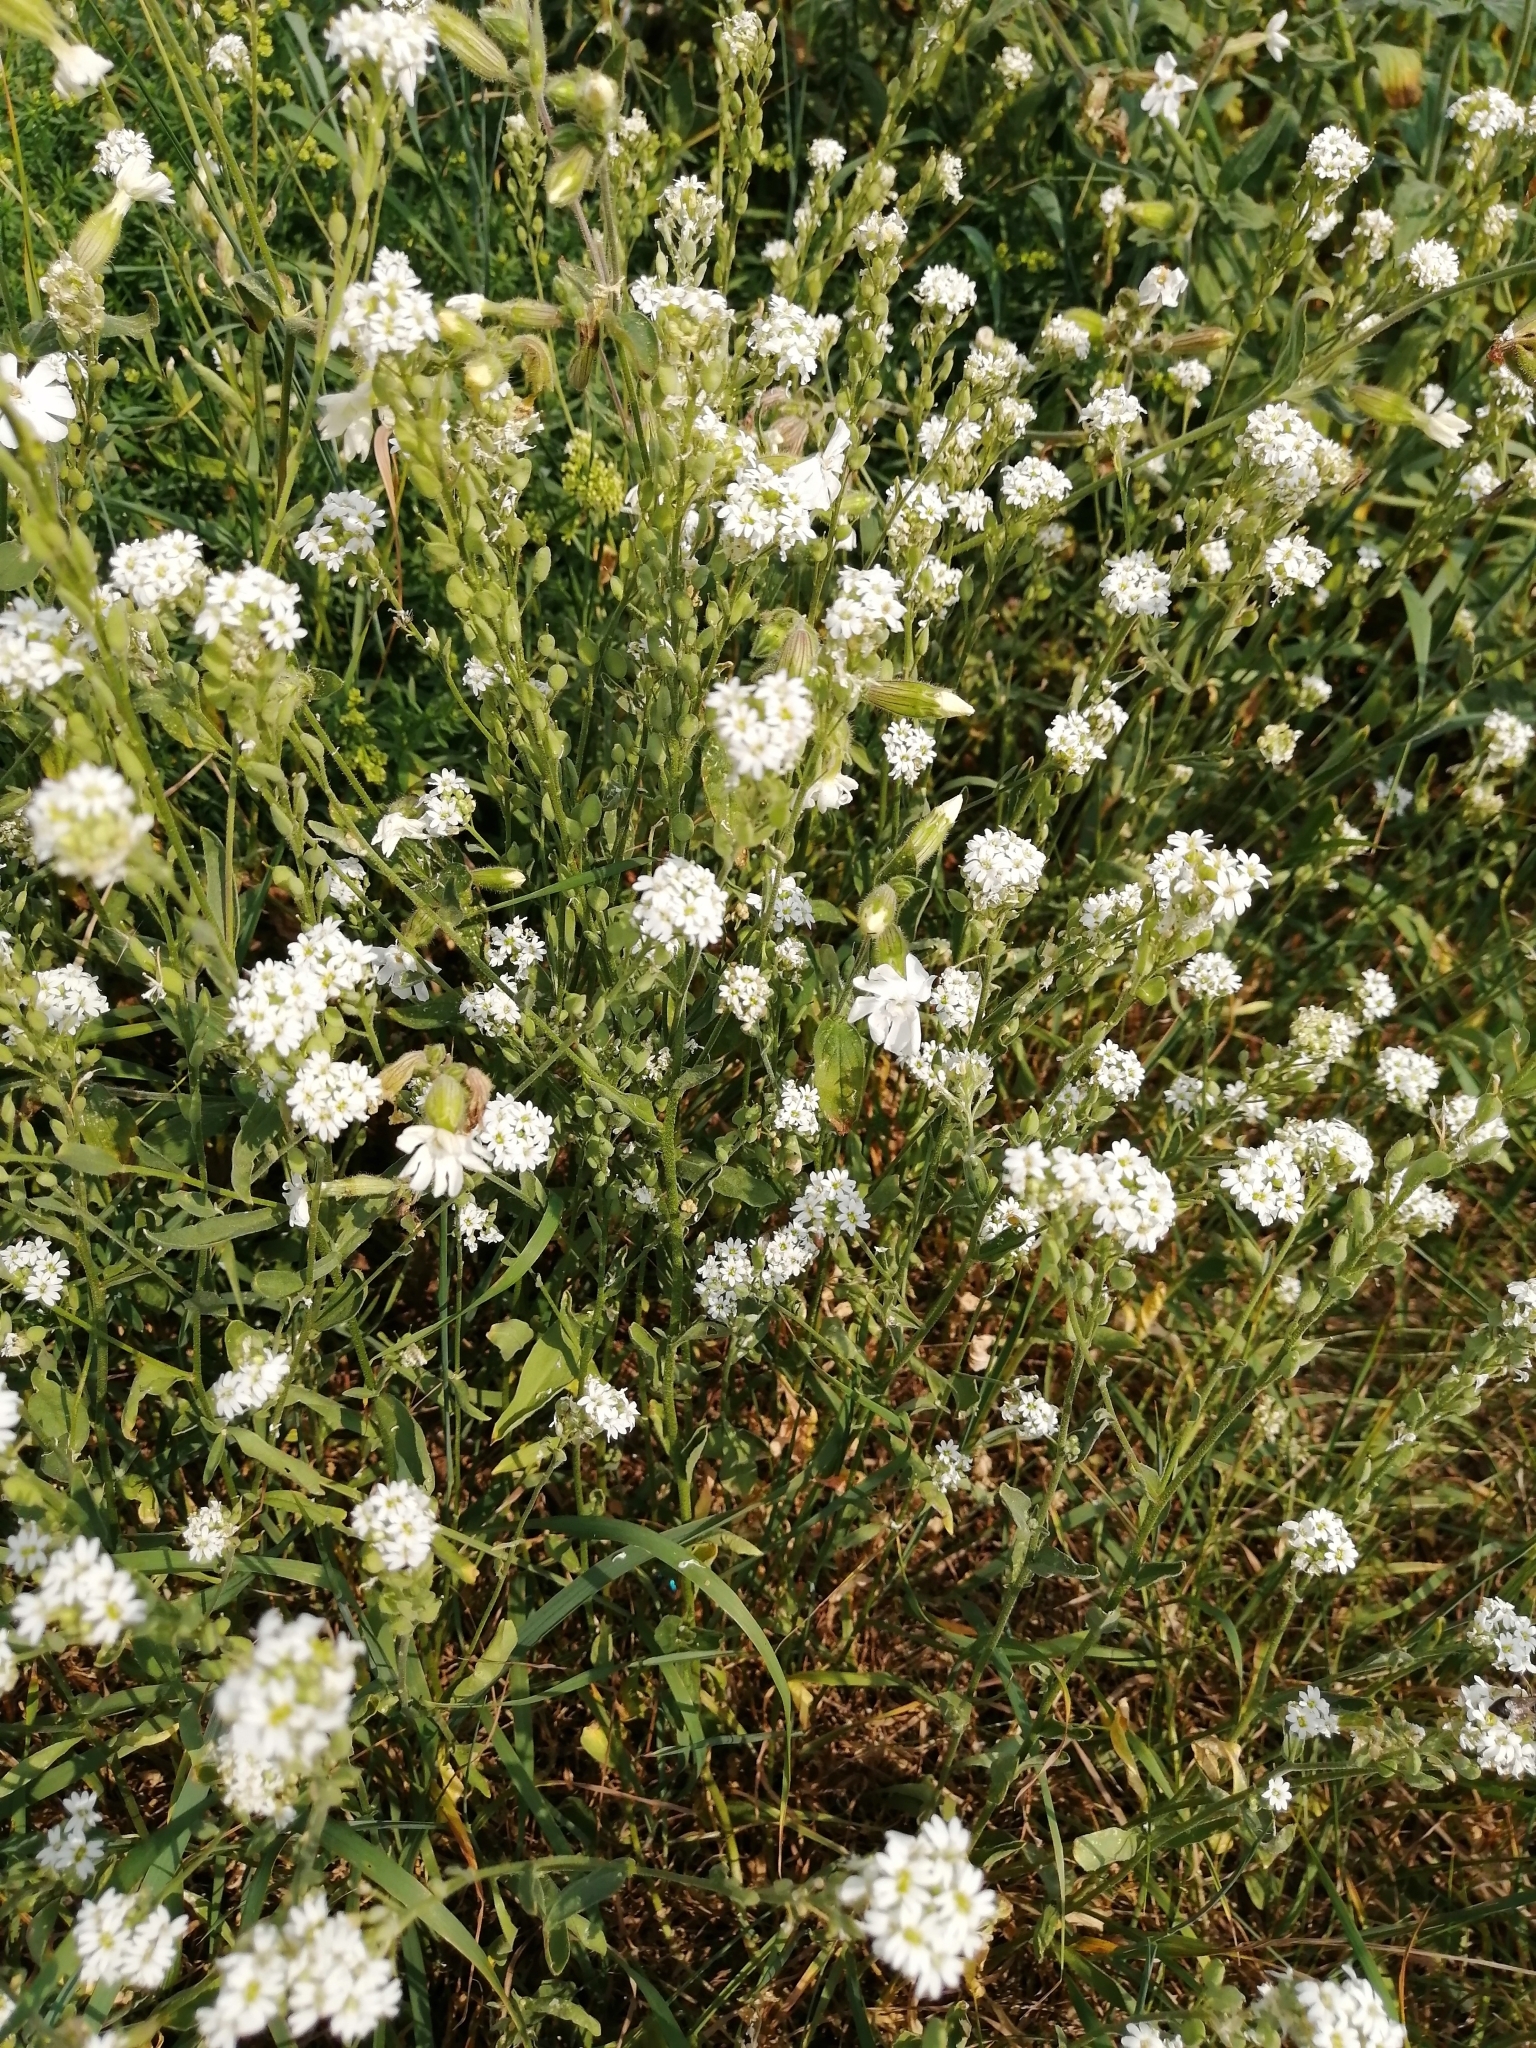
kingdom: Plantae
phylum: Tracheophyta
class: Magnoliopsida
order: Brassicales
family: Brassicaceae
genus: Berteroa
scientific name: Berteroa incana
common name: Hoary alison
